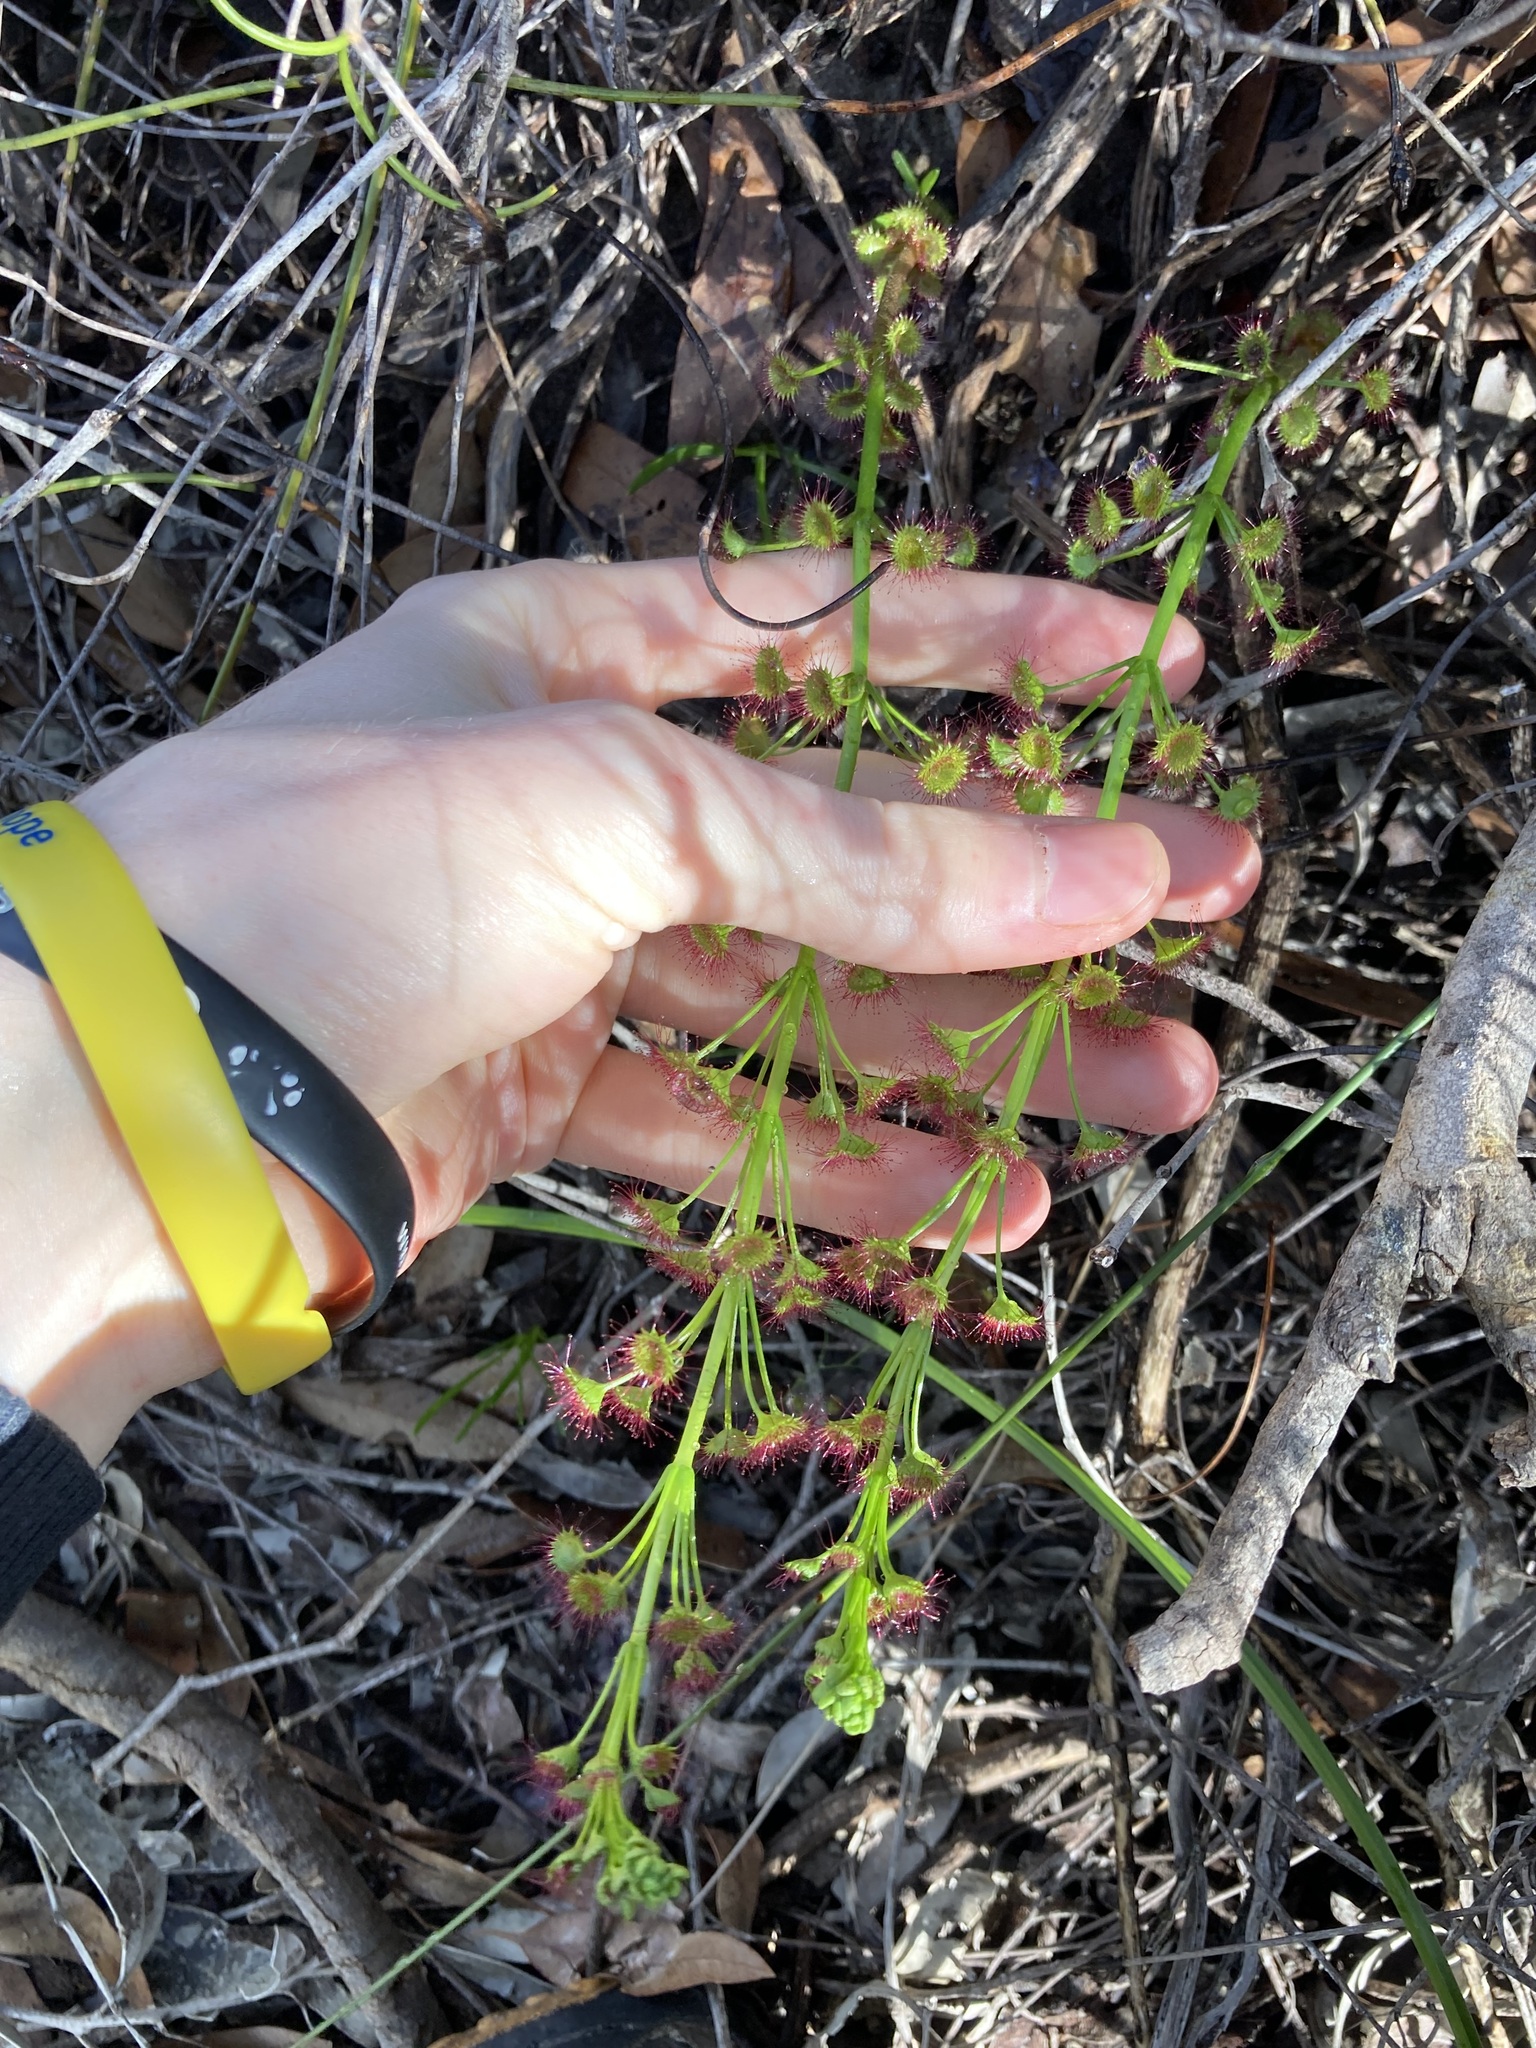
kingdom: Plantae
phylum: Tracheophyta
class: Magnoliopsida
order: Caryophyllales
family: Droseraceae
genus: Drosera
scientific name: Drosera stolonifera
